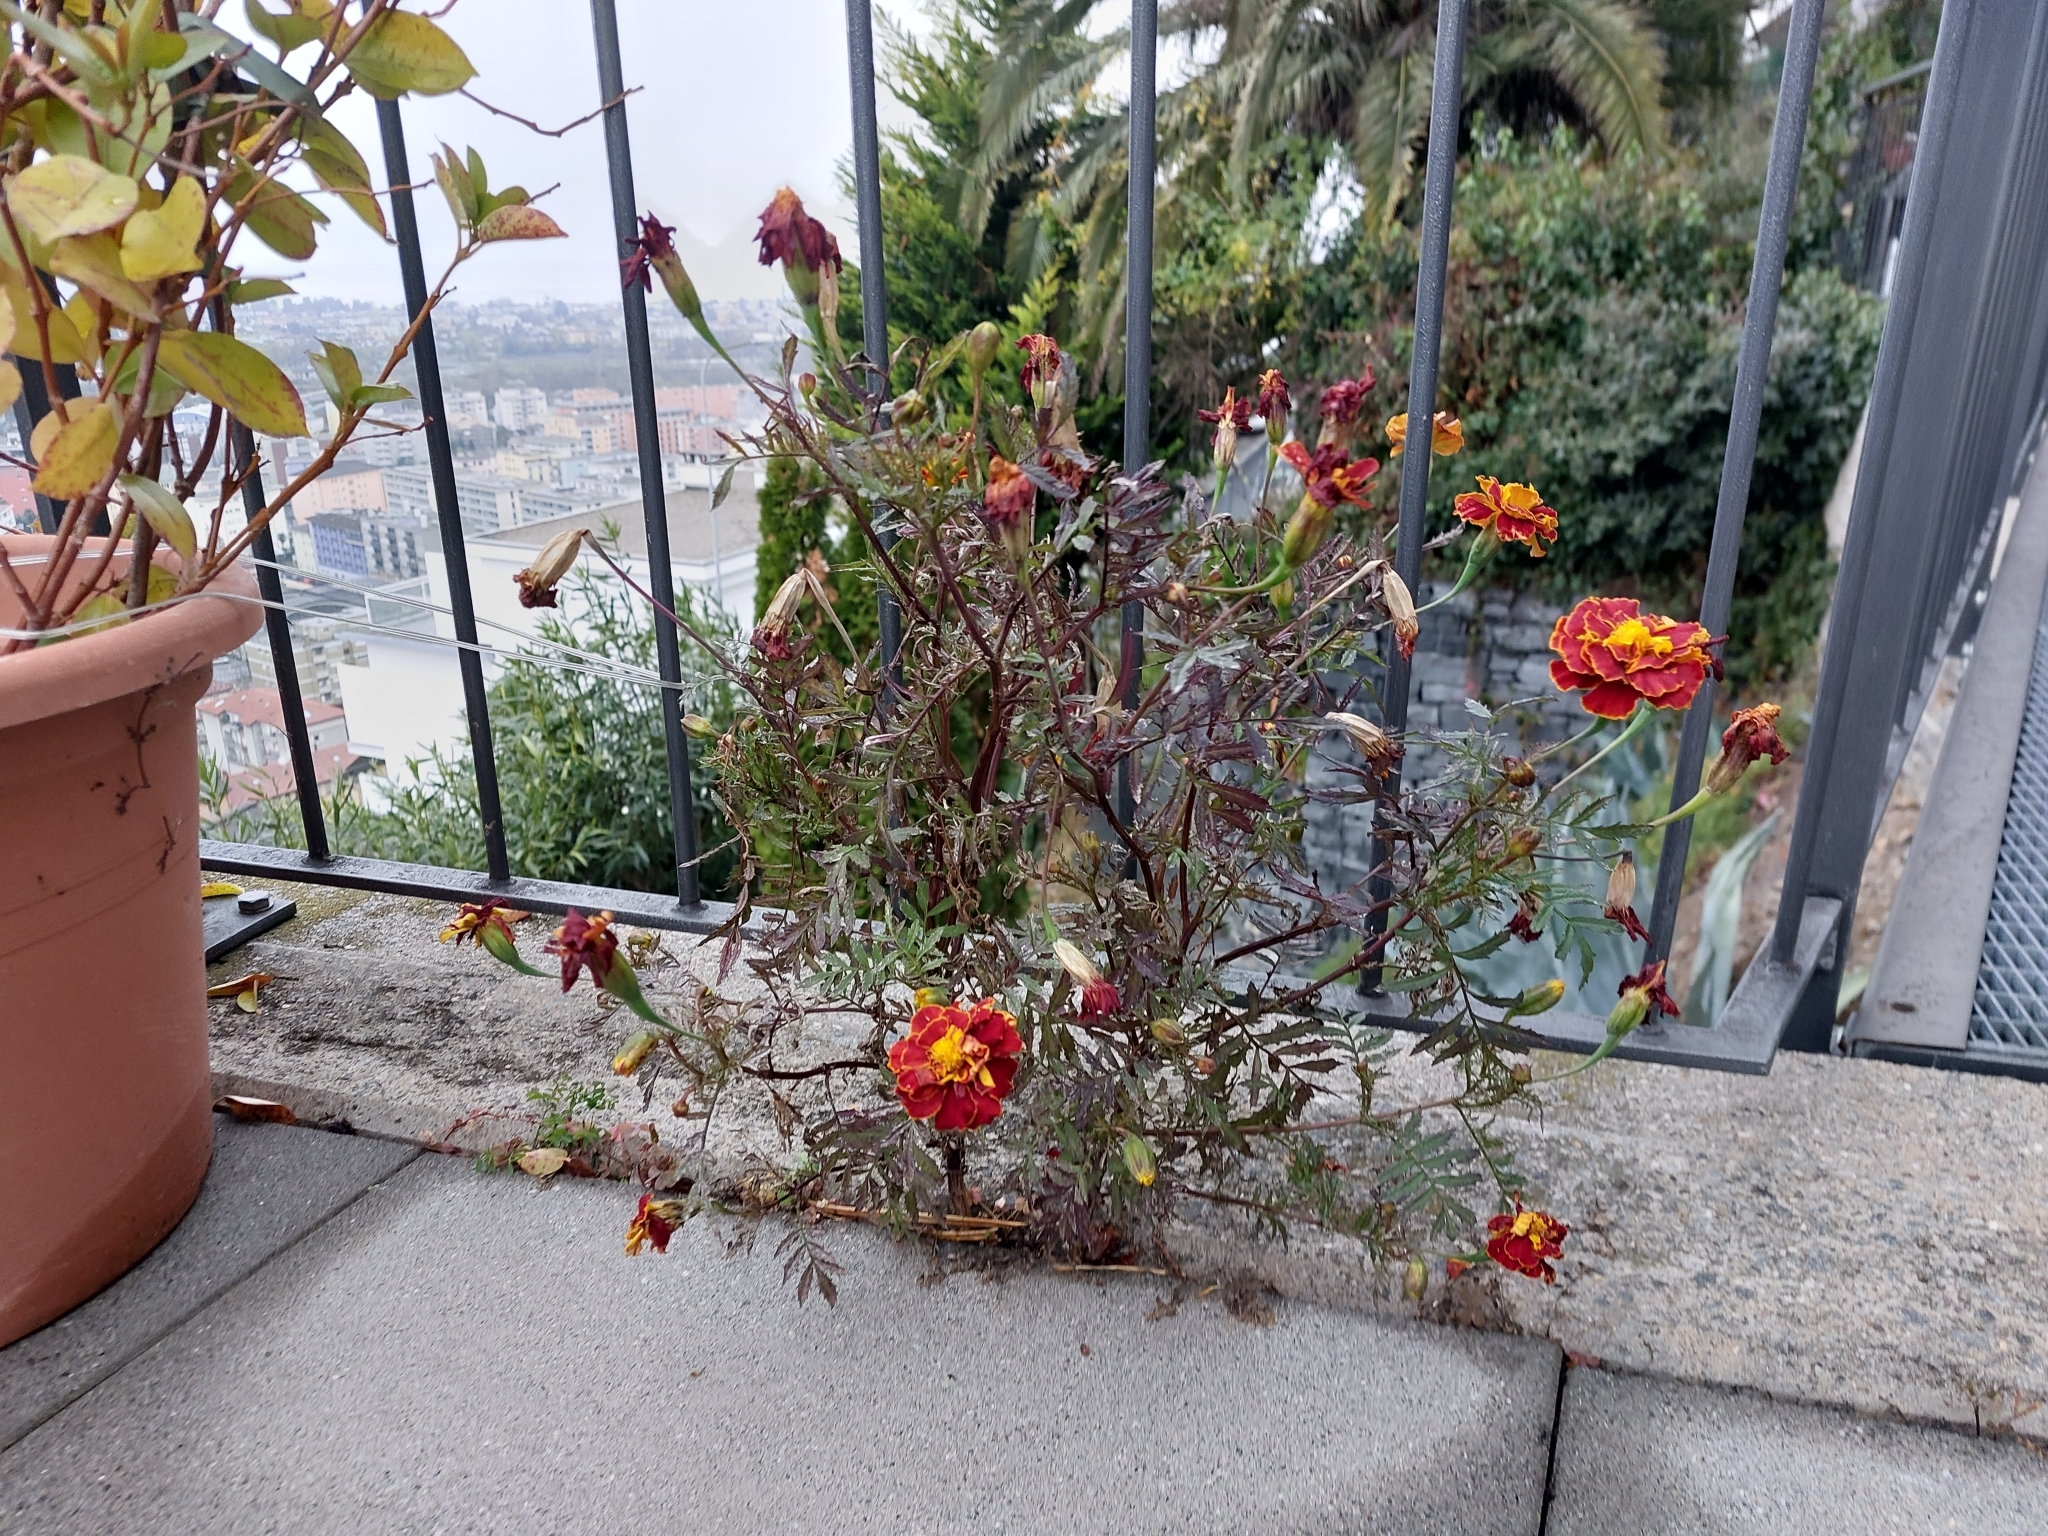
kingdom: Plantae
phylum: Tracheophyta
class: Magnoliopsida
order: Asterales
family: Asteraceae
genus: Tagetes
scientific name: Tagetes erecta
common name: African marigold
